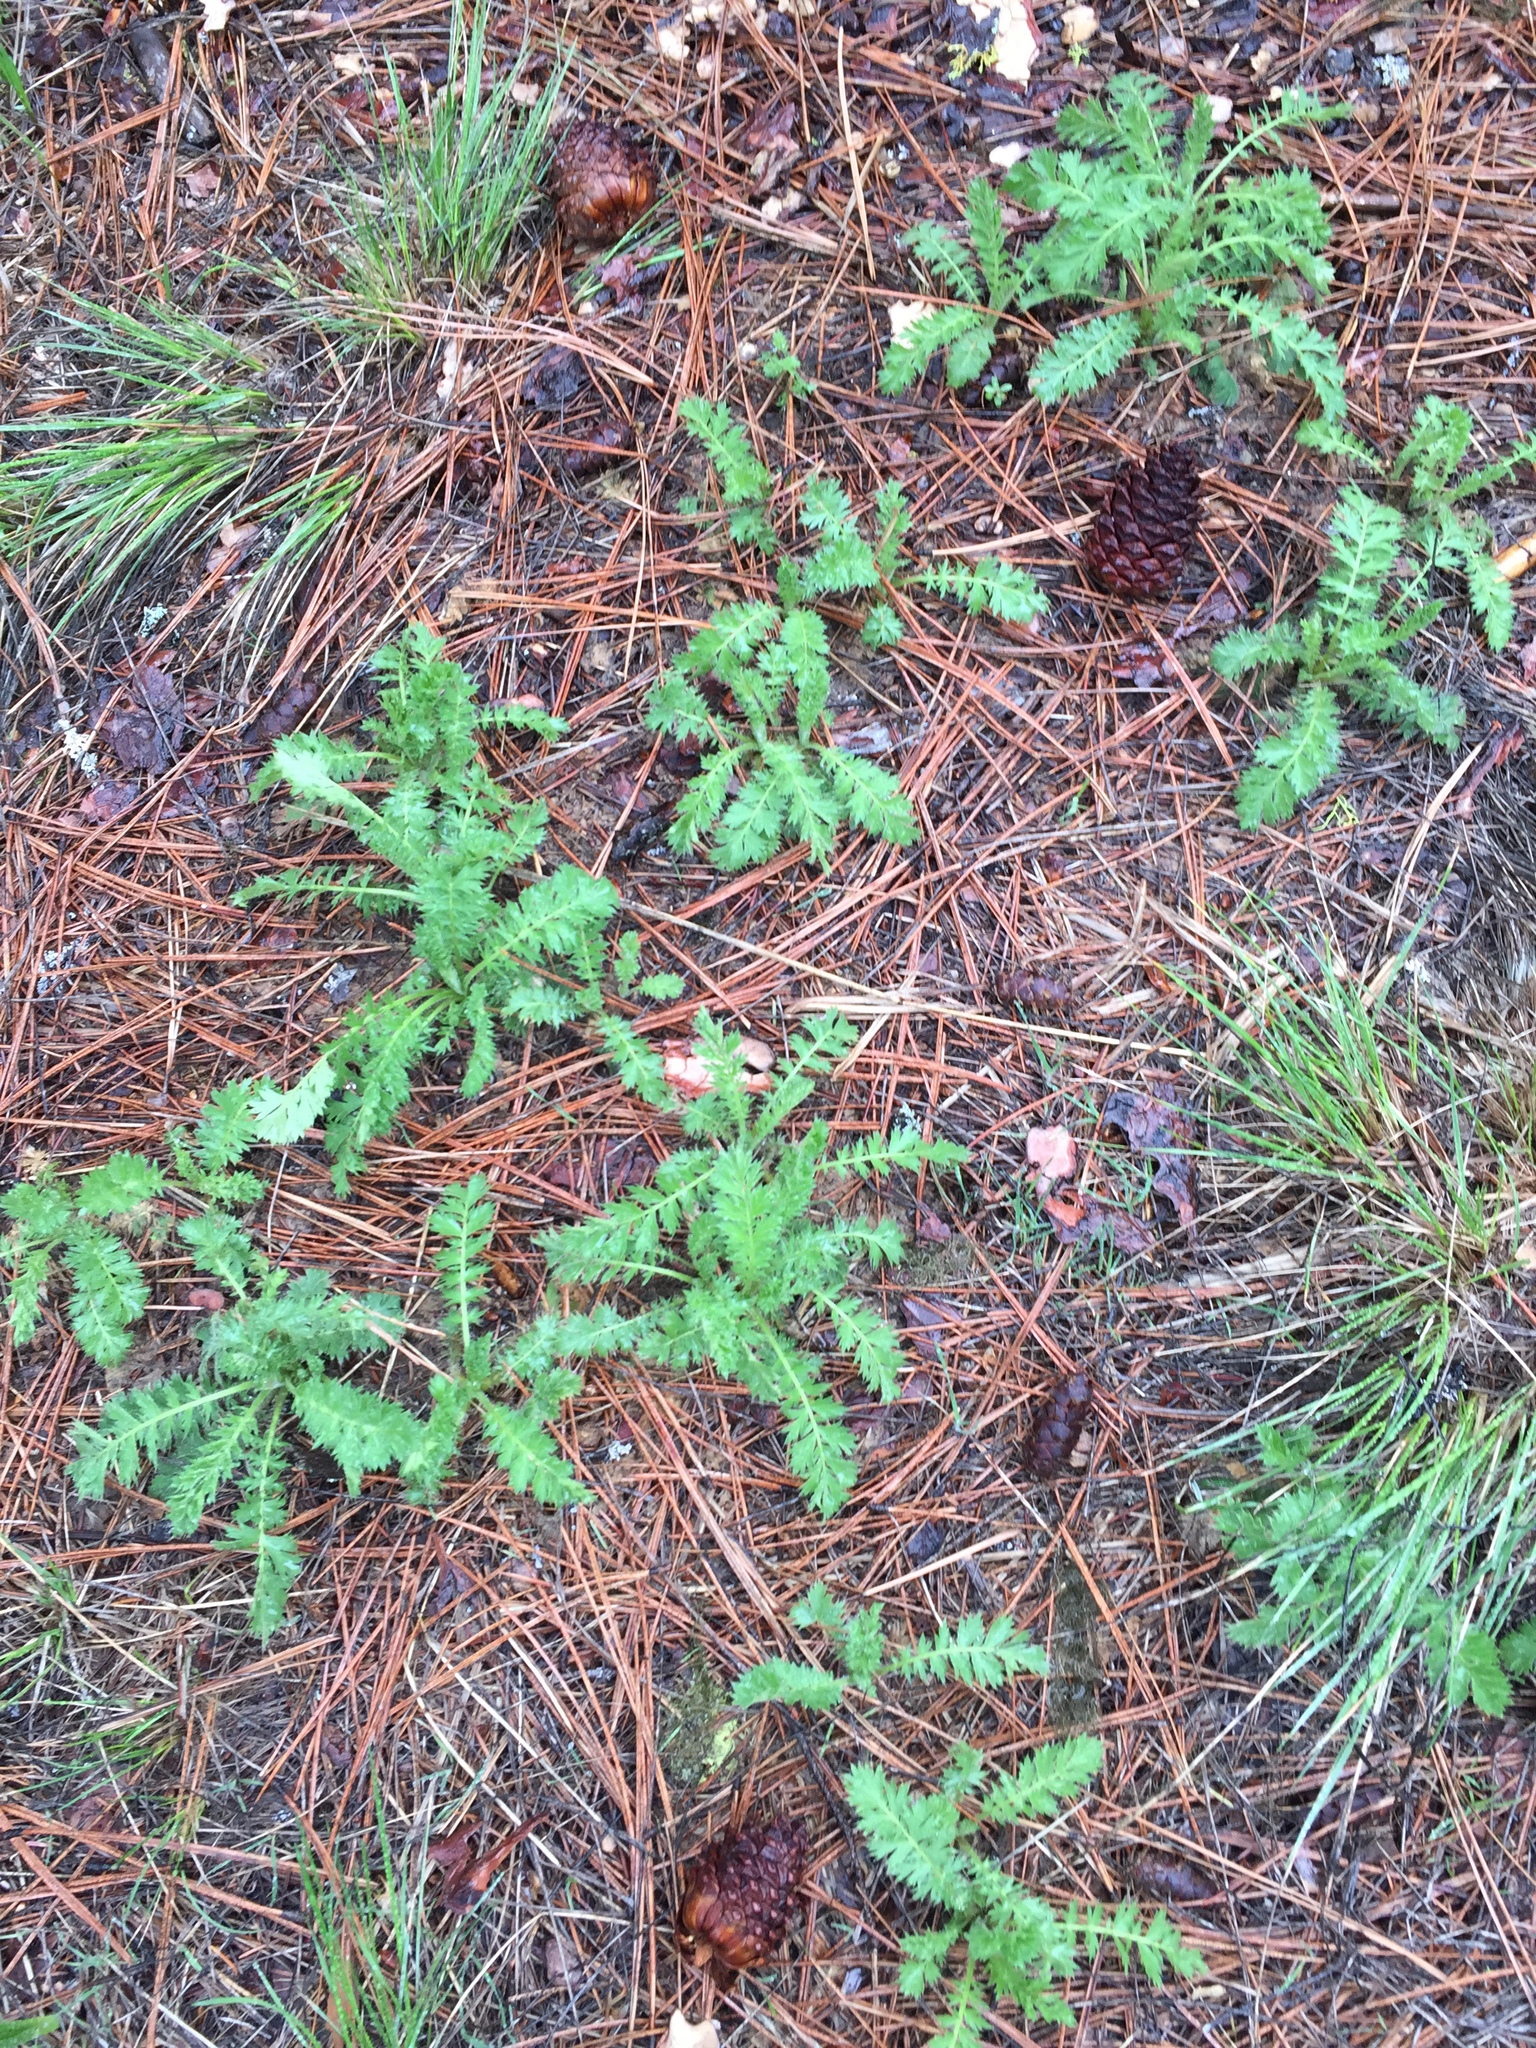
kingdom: Plantae
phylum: Tracheophyta
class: Magnoliopsida
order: Rosales
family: Rosaceae
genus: Geum
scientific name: Geum triflorum
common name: Old man's whiskers
